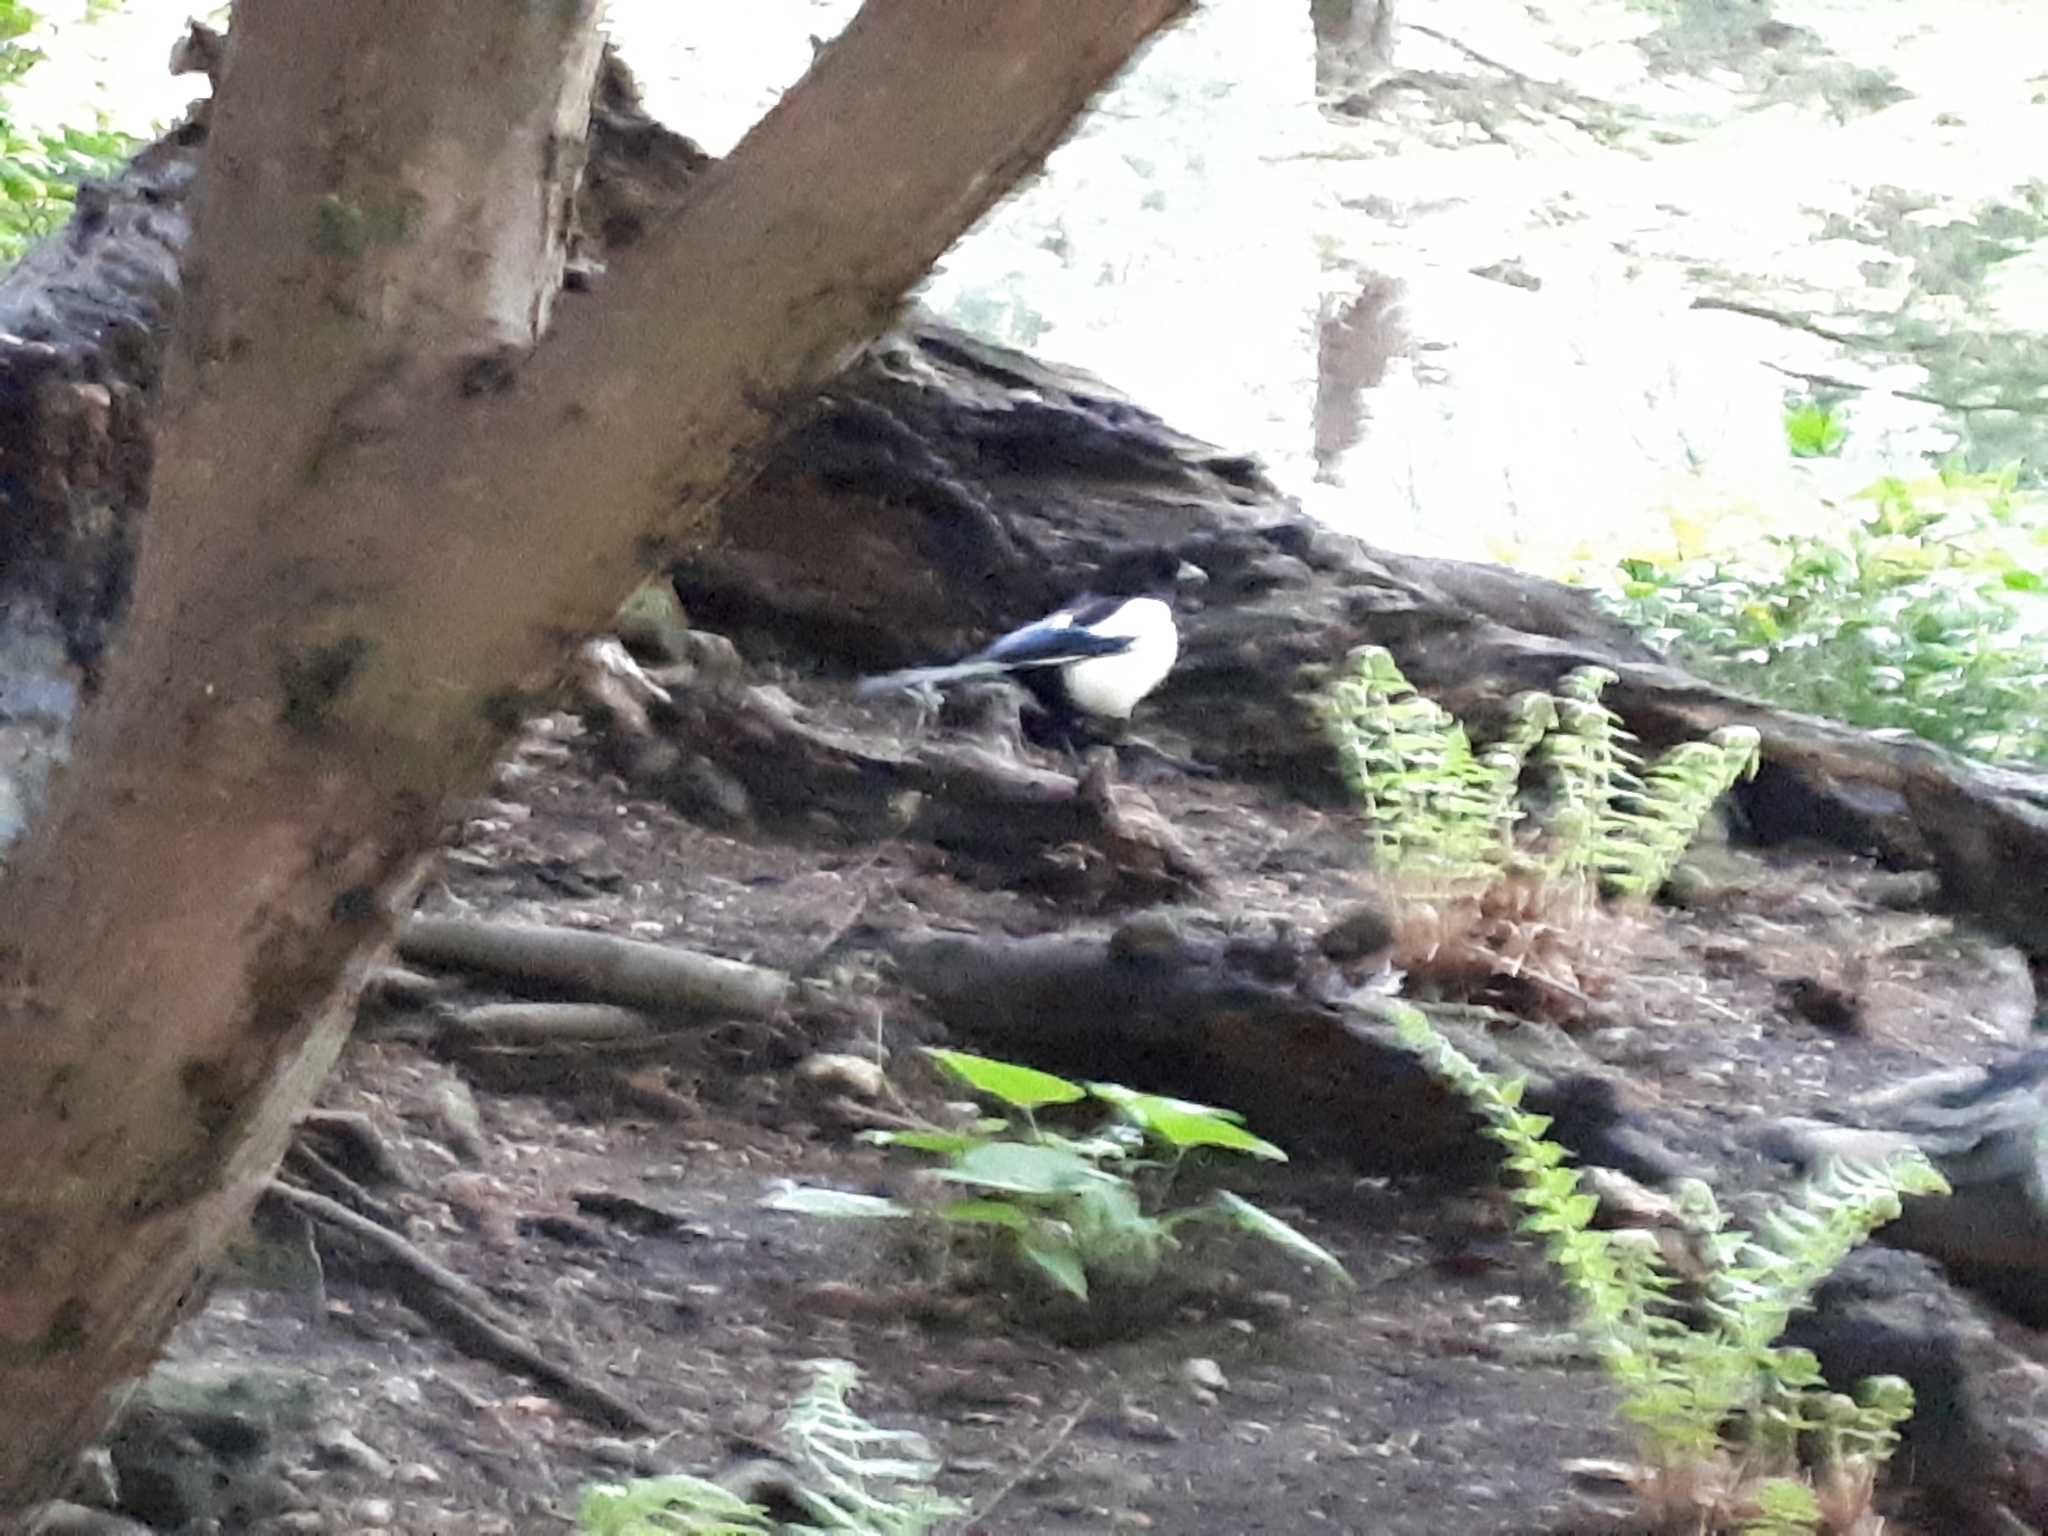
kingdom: Animalia
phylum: Chordata
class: Aves
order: Passeriformes
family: Corvidae
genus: Pica
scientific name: Pica pica
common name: Eurasian magpie
